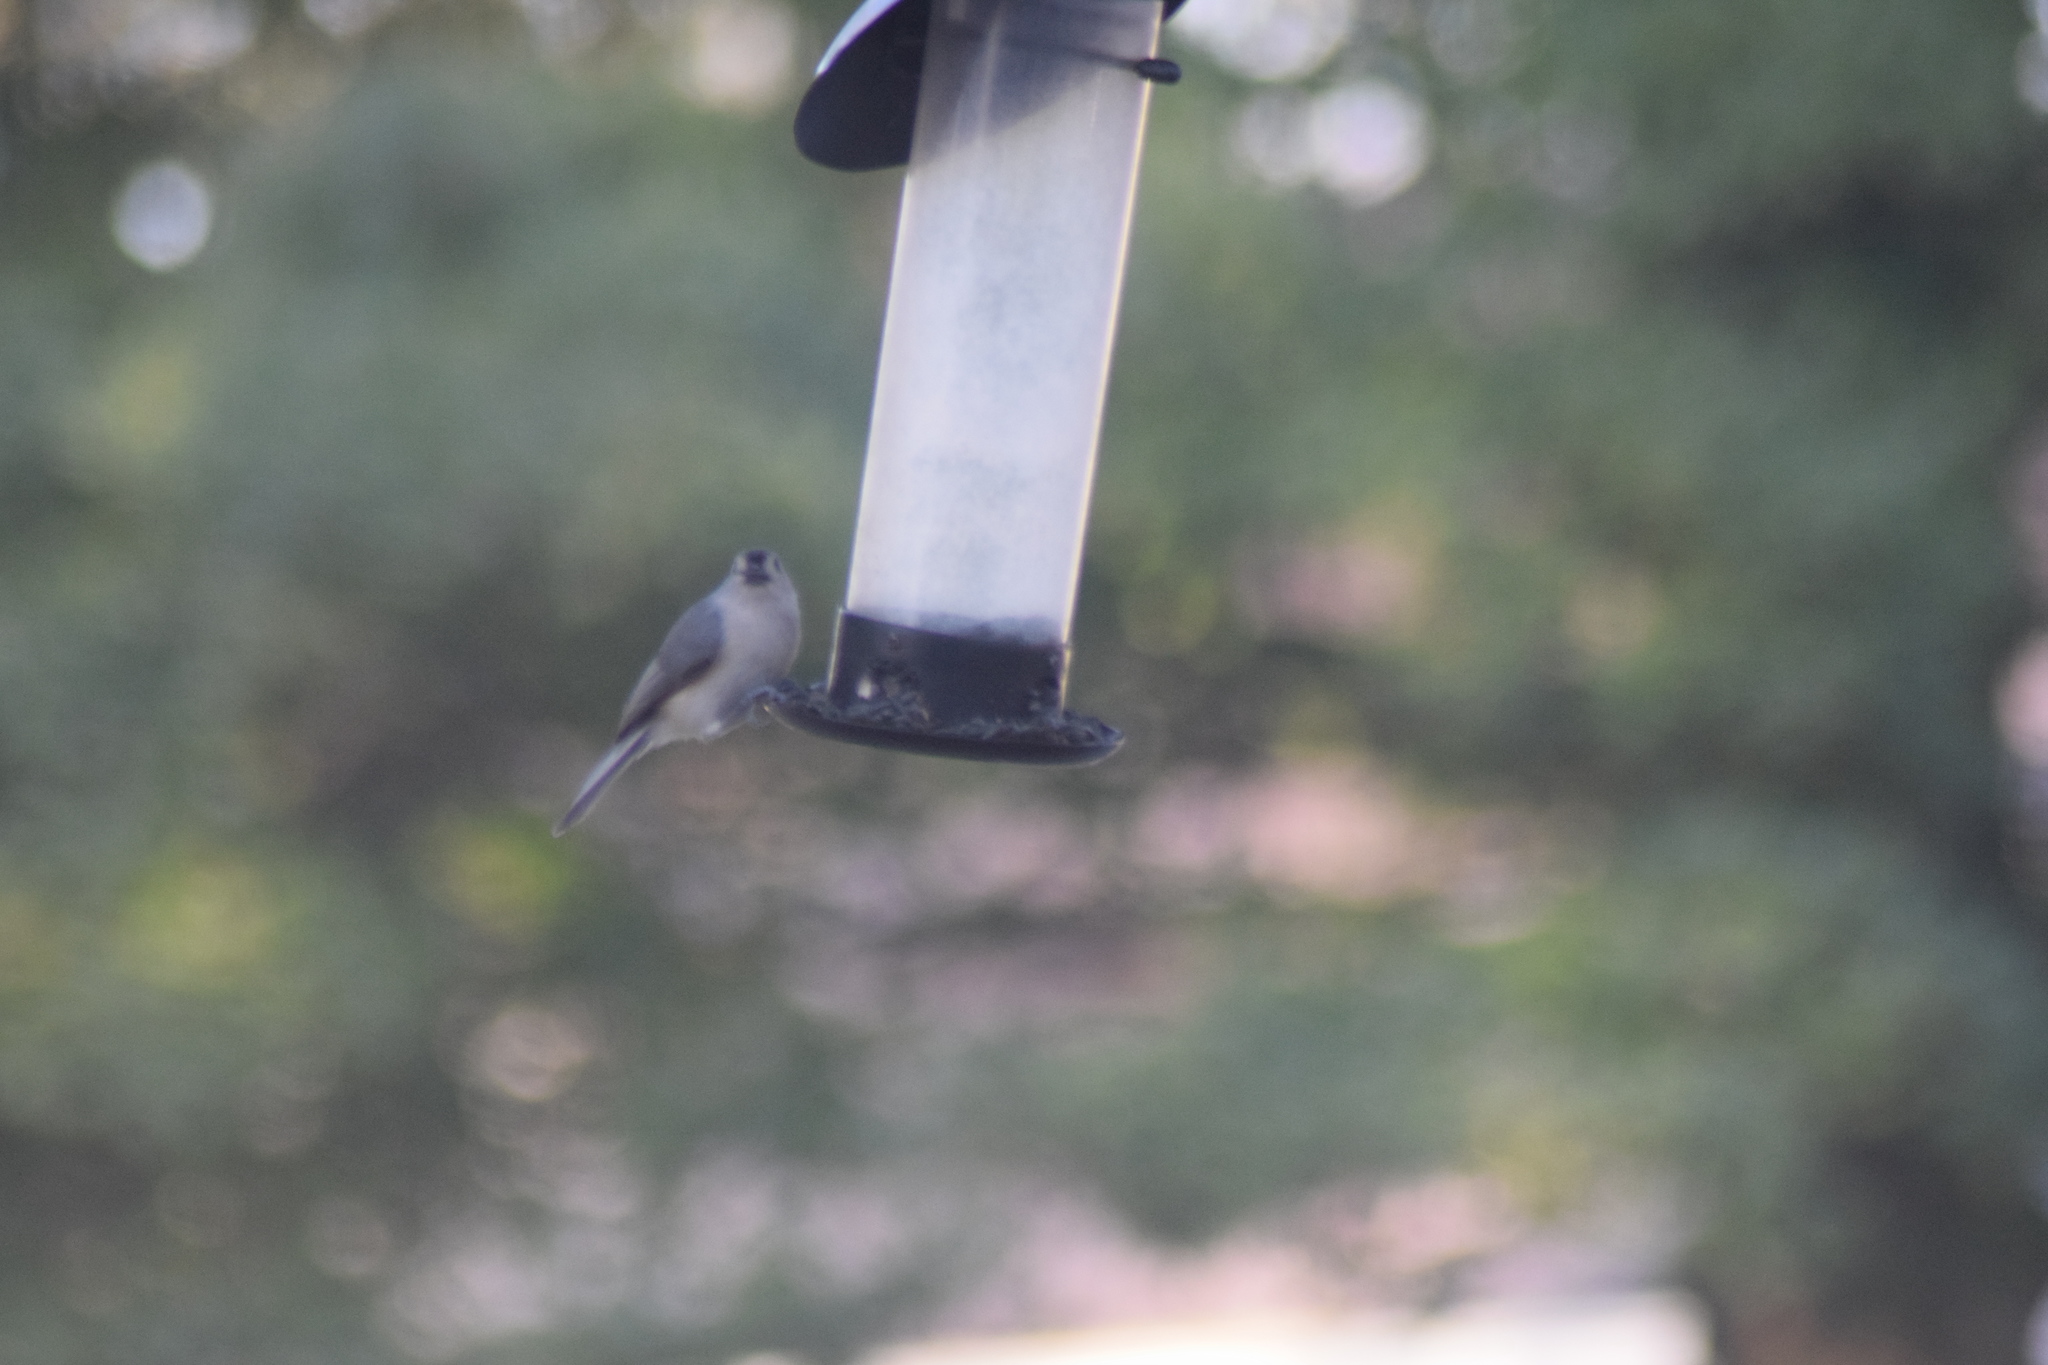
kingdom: Animalia
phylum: Chordata
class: Aves
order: Passeriformes
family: Paridae
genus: Baeolophus
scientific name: Baeolophus bicolor
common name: Tufted titmouse
